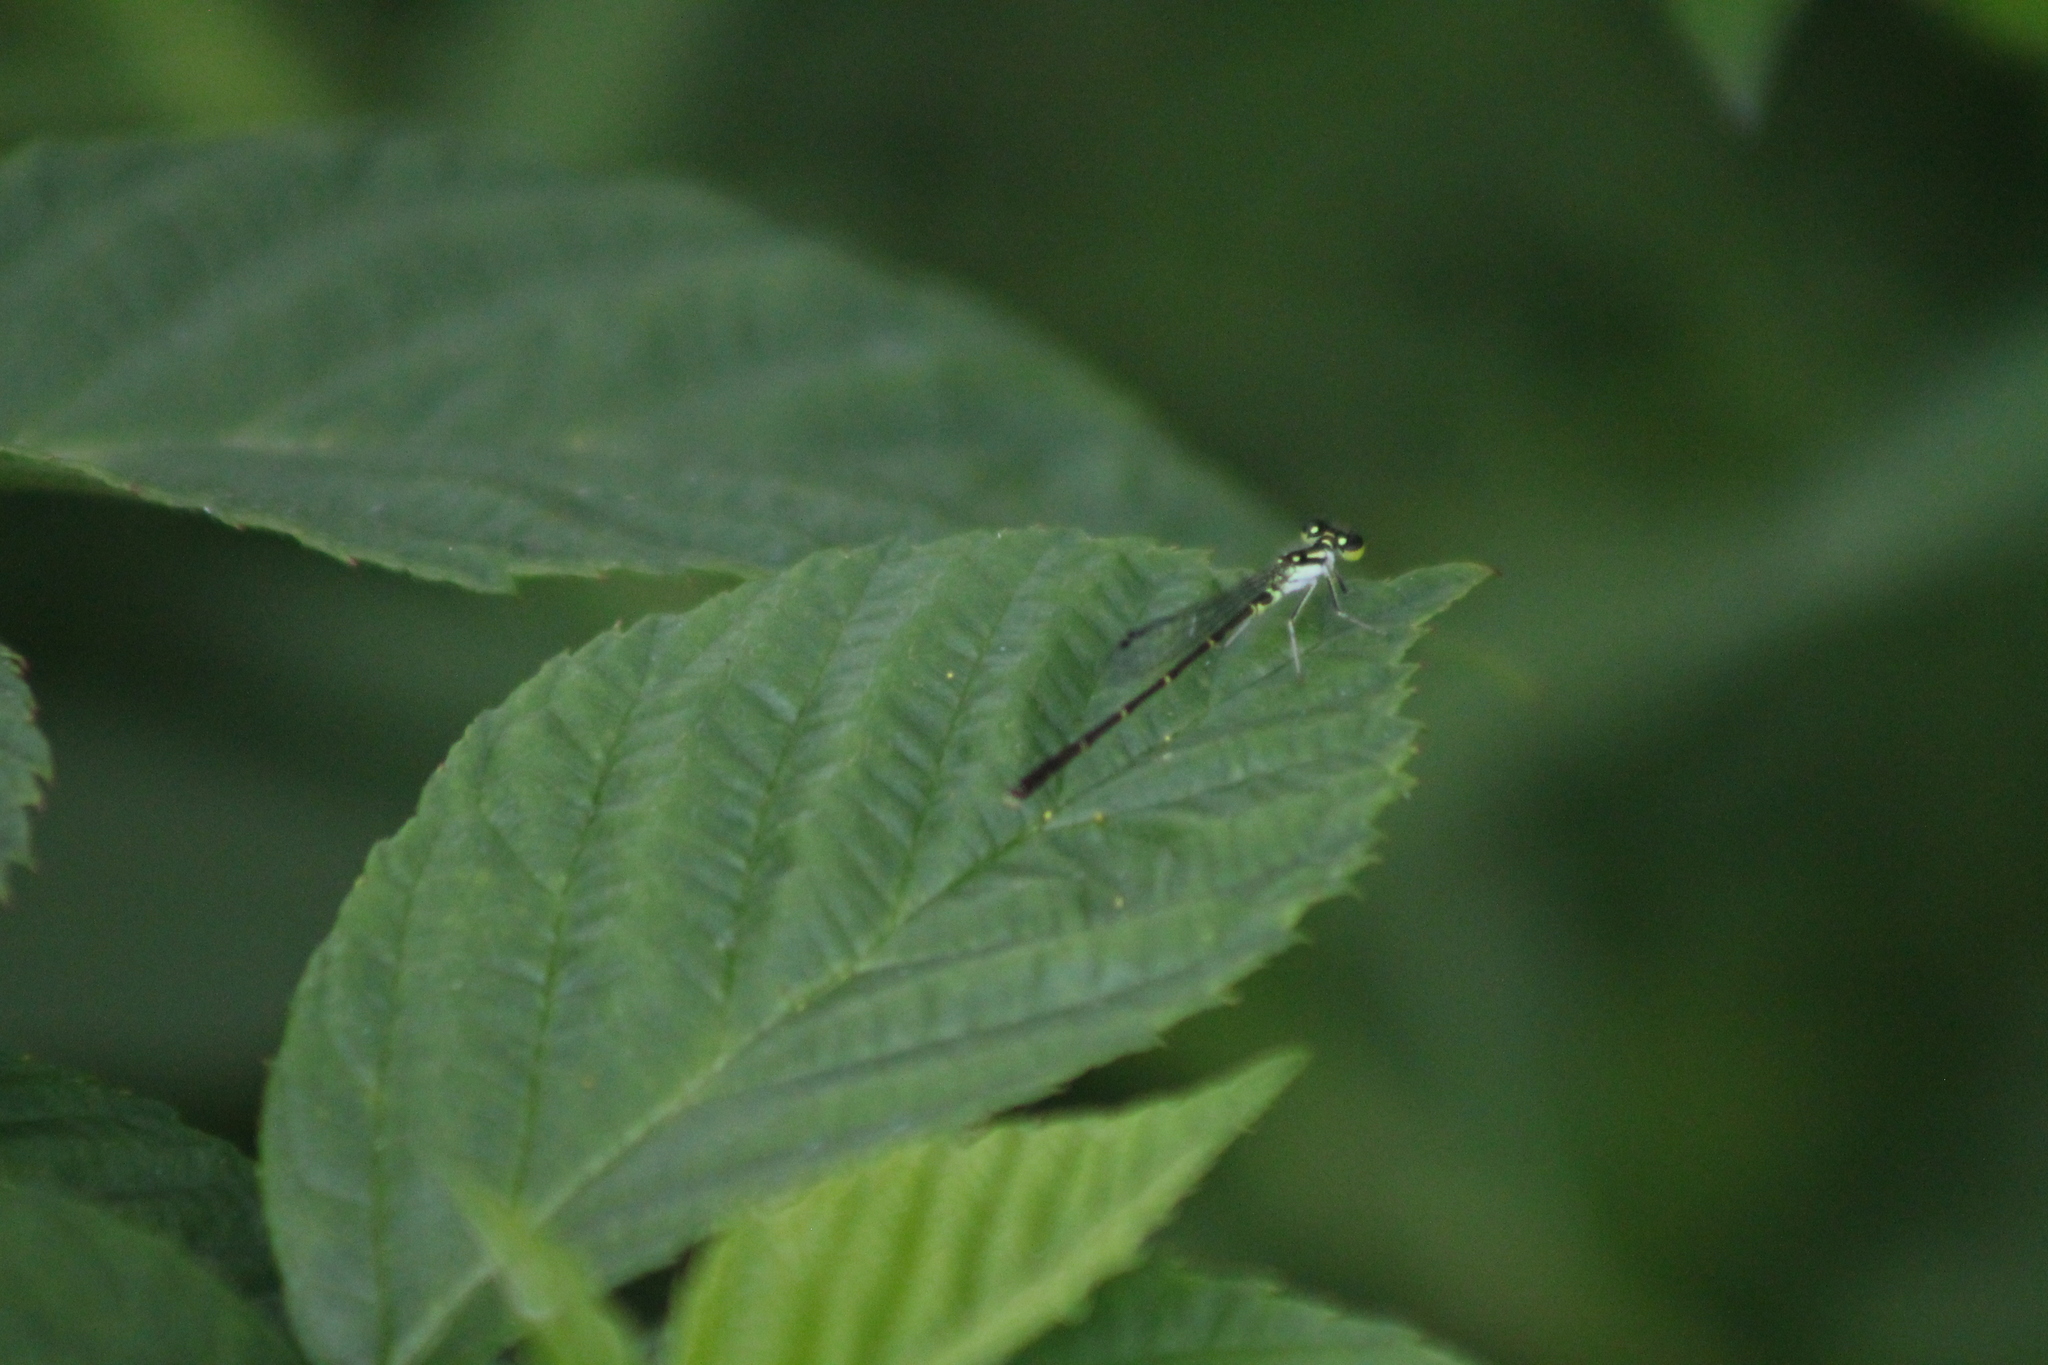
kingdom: Animalia
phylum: Arthropoda
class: Insecta
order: Odonata
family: Coenagrionidae
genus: Ischnura
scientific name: Ischnura posita
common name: Fragile forktail
